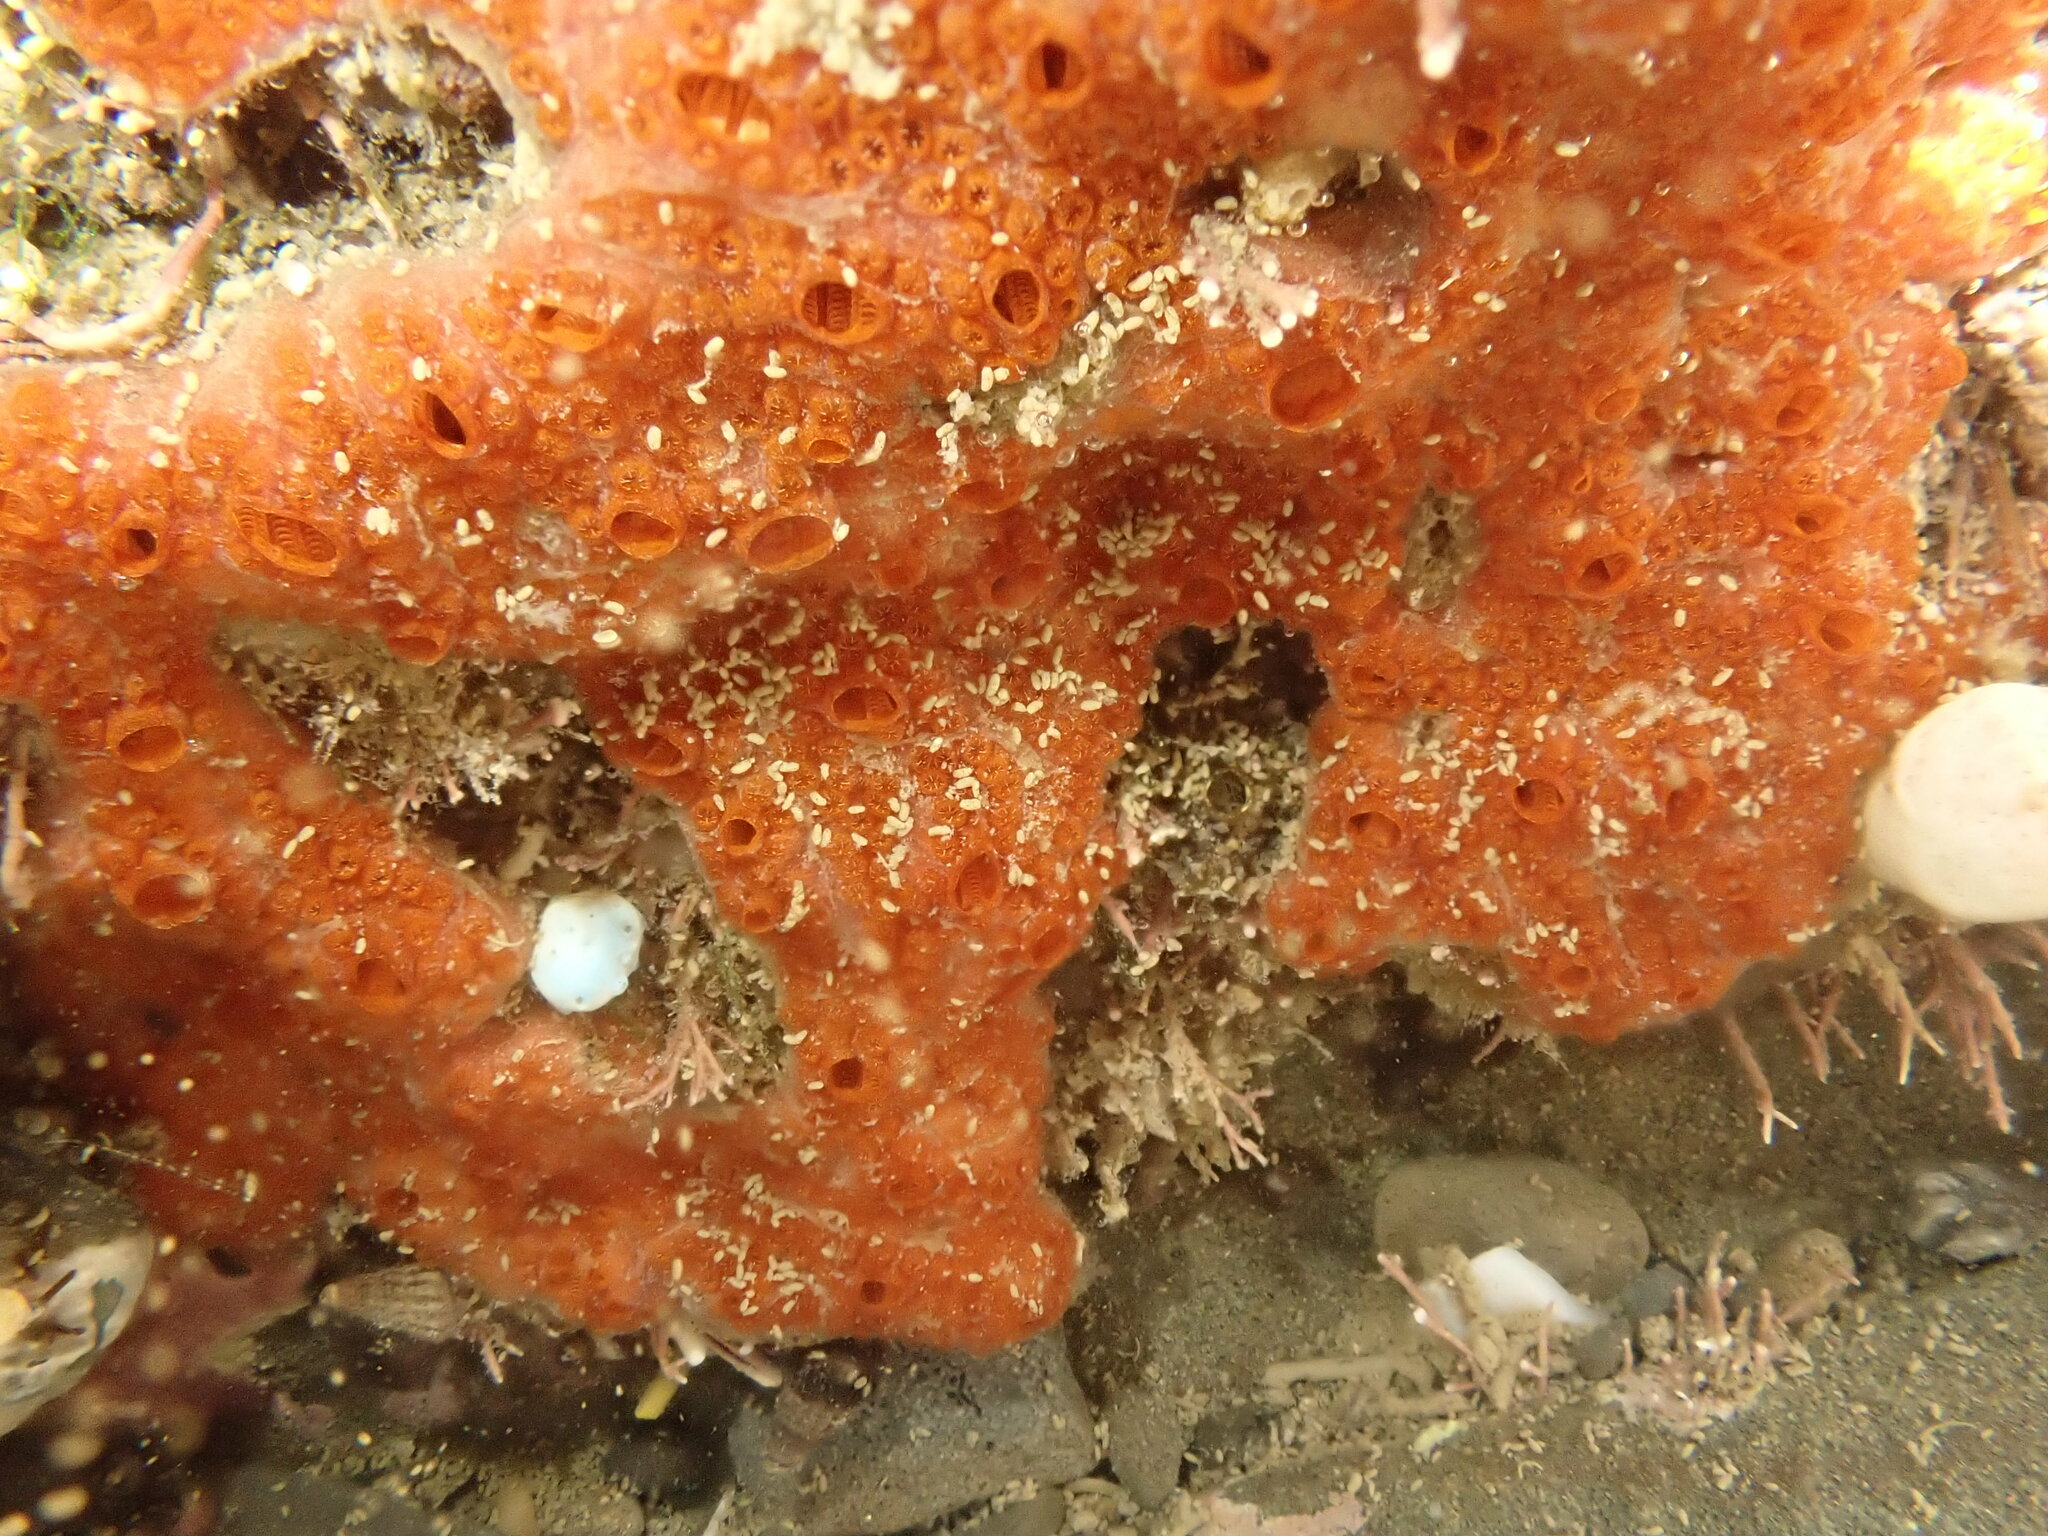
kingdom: Animalia
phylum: Chordata
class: Ascidiacea
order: Stolidobranchia
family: Styelidae
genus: Botrylloides
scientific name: Botrylloides violaceus
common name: Colonial sea squirt
